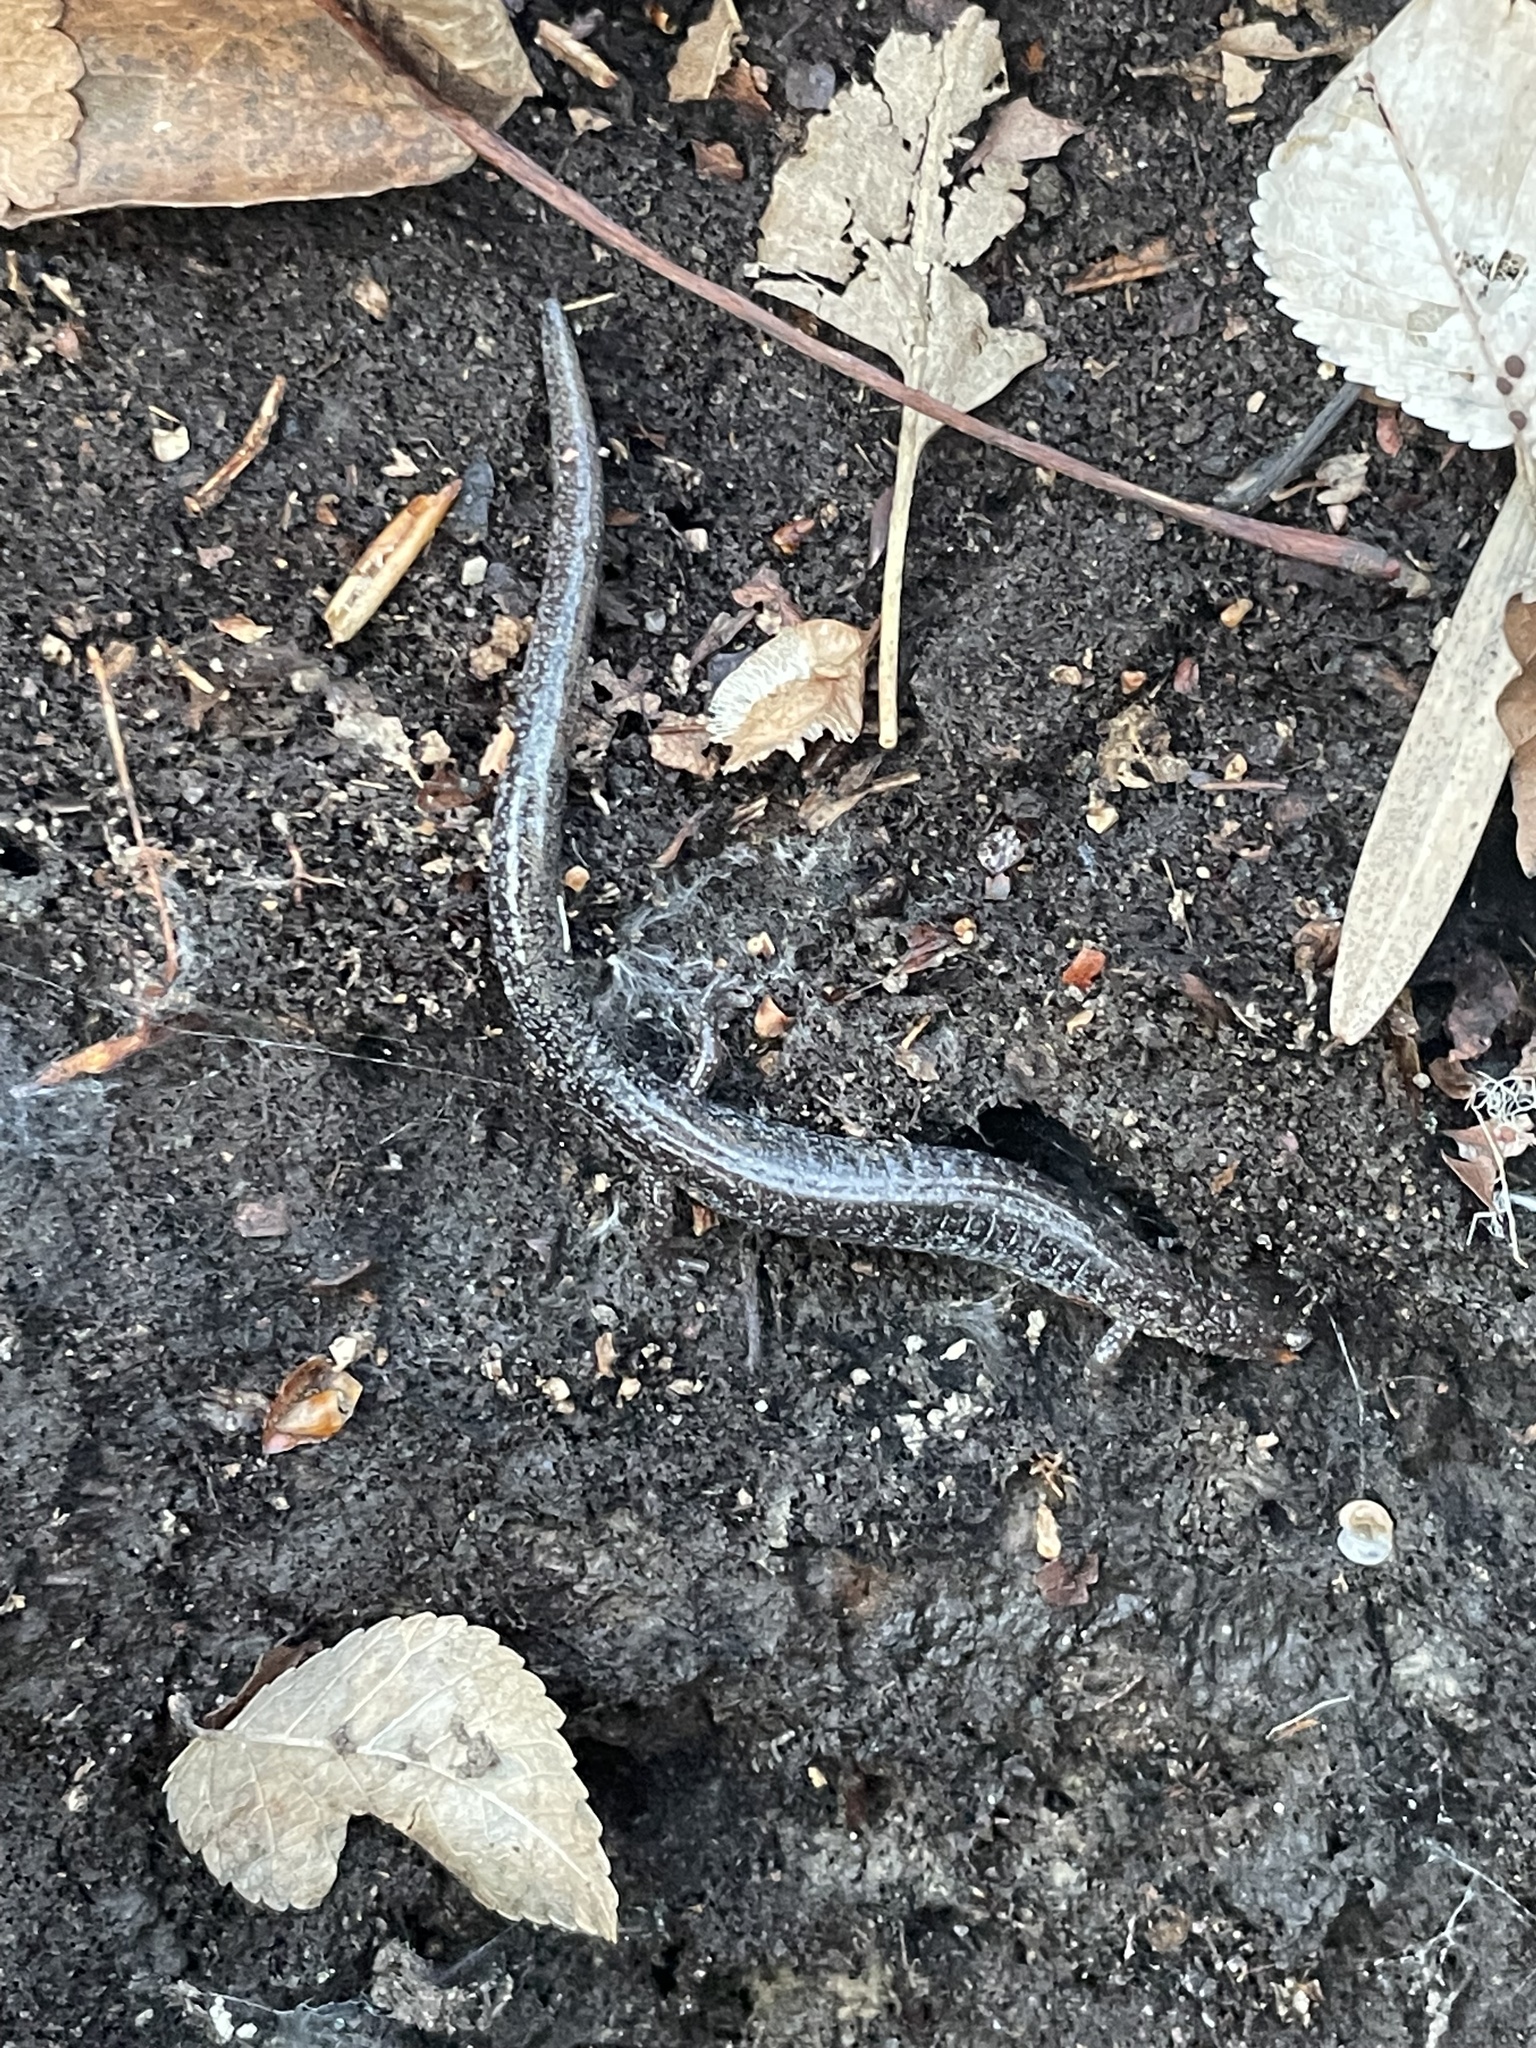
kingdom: Animalia
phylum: Chordata
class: Amphibia
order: Caudata
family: Plethodontidae
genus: Plethodon
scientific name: Plethodon cinereus
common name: Redback salamander
